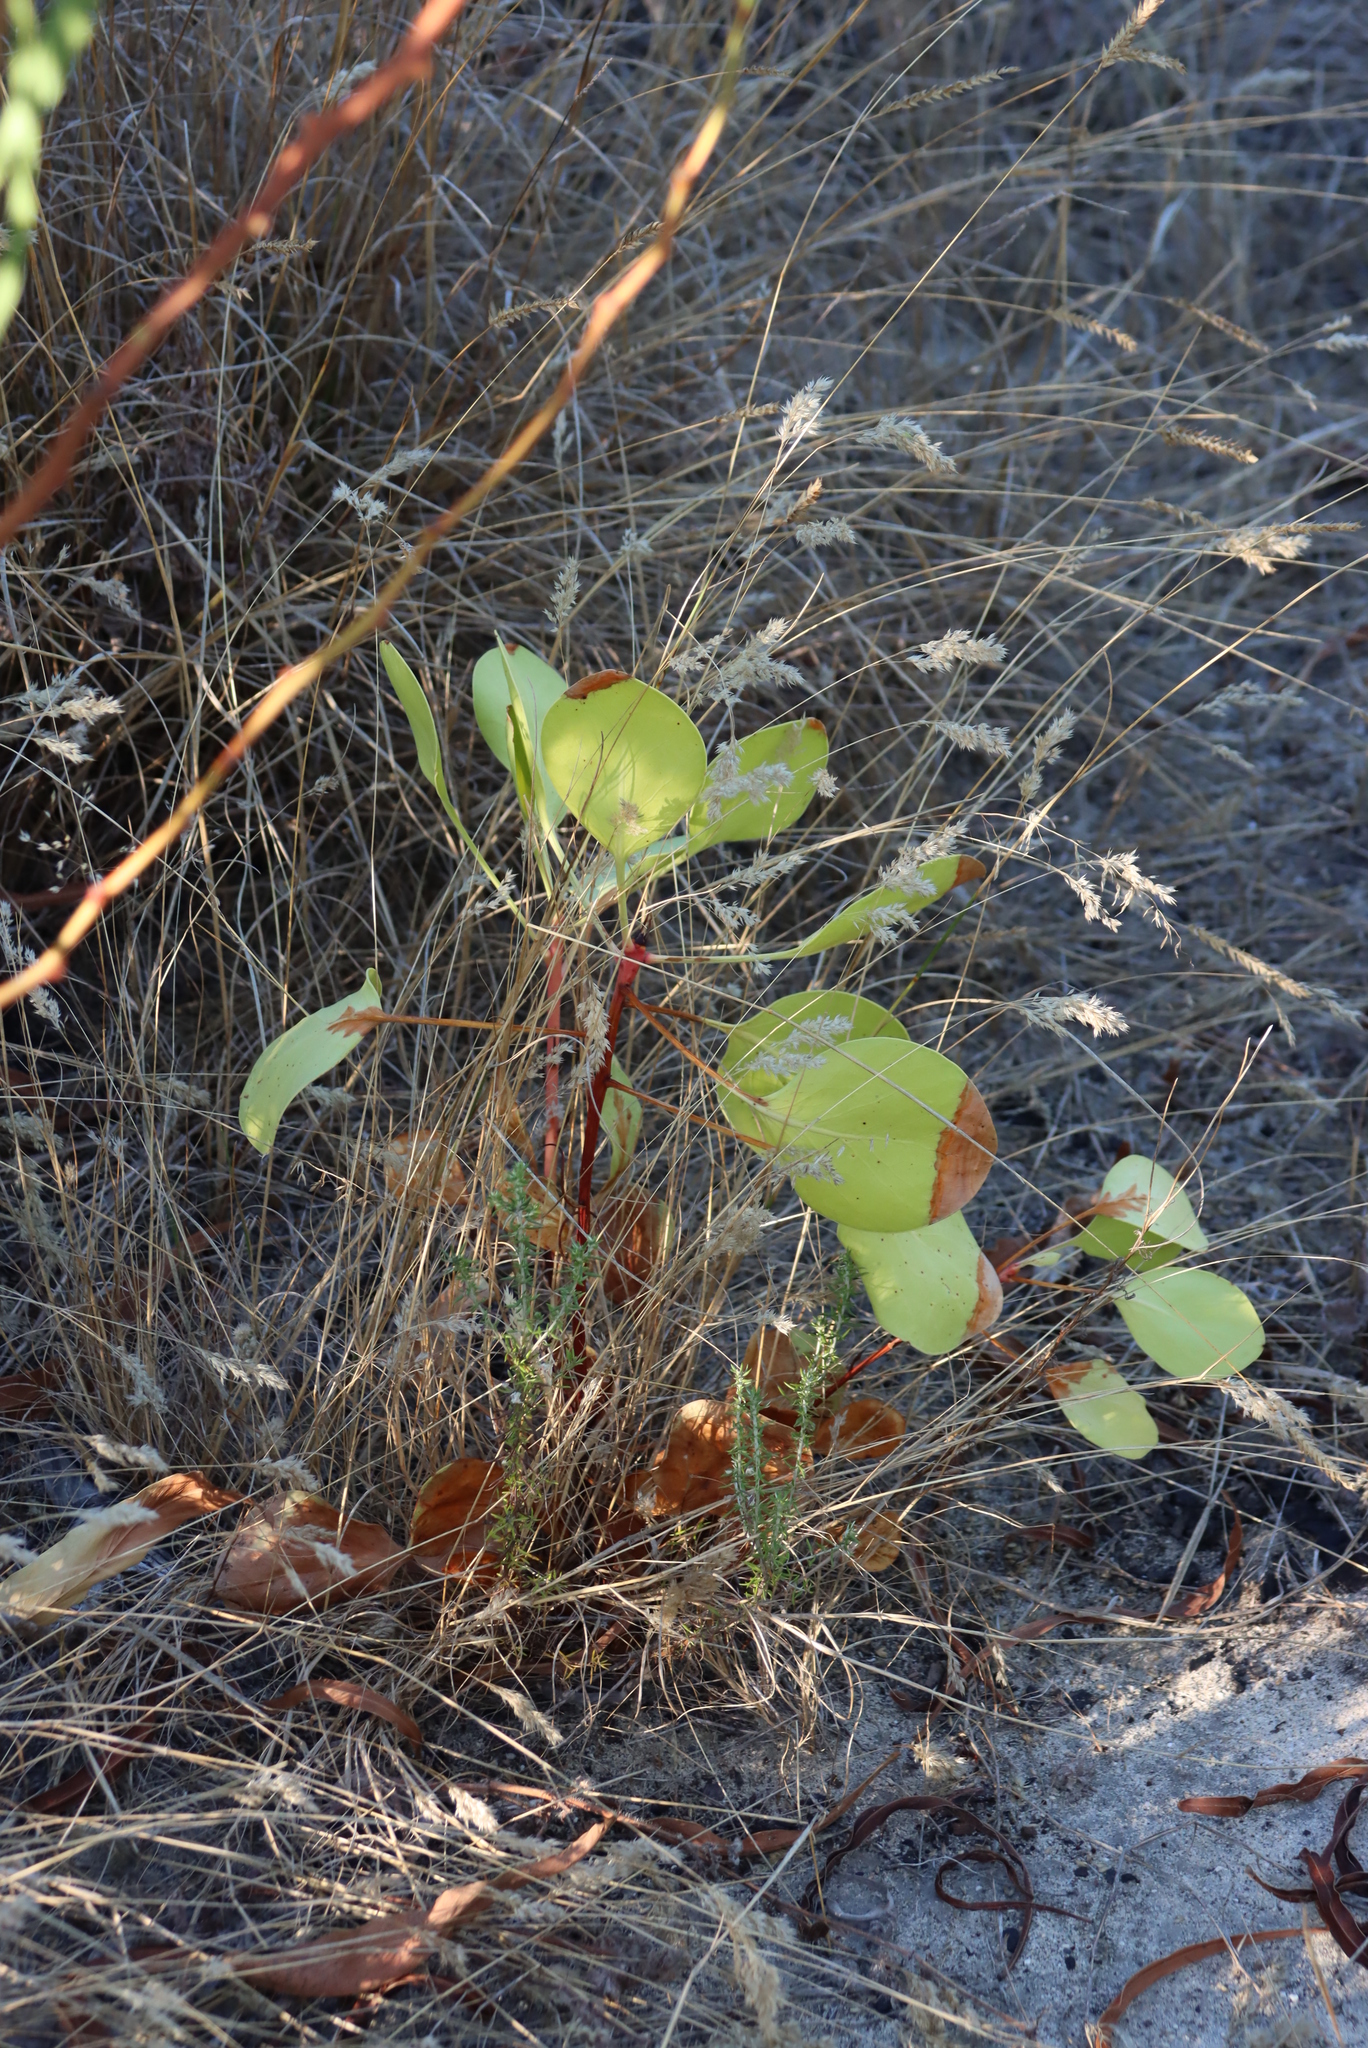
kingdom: Plantae
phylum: Tracheophyta
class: Magnoliopsida
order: Proteales
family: Proteaceae
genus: Protea
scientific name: Protea cynaroides
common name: King protea
